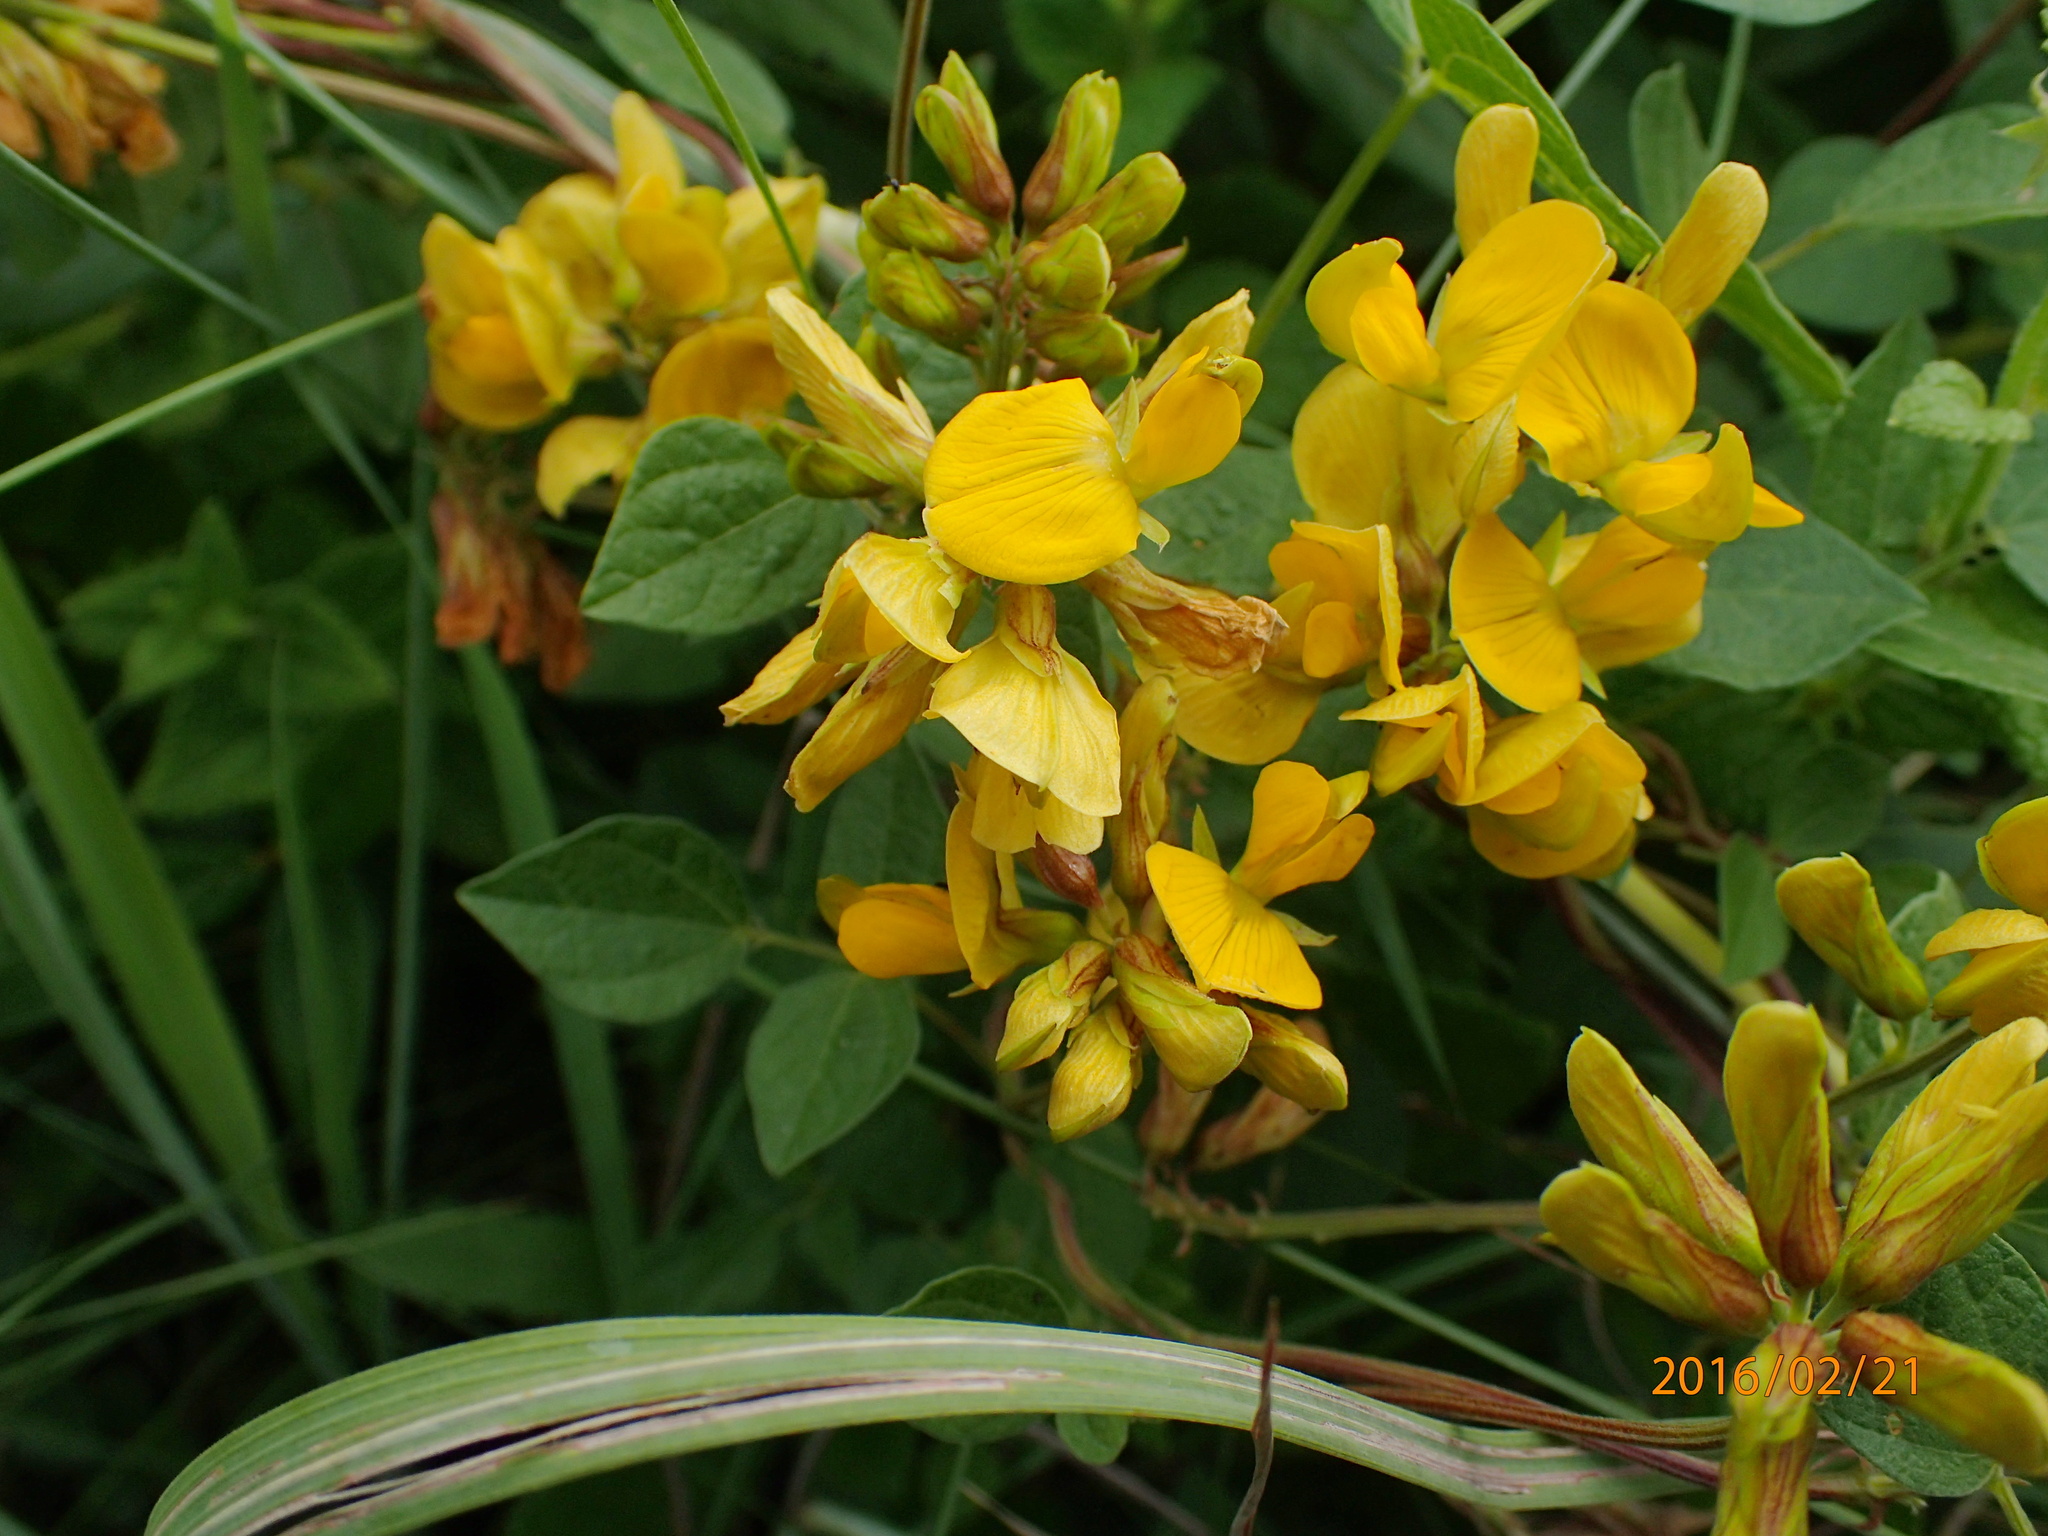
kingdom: Plantae
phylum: Tracheophyta
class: Magnoliopsida
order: Fabales
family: Fabaceae
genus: Rhynchosia
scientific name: Rhynchosia cooperi
